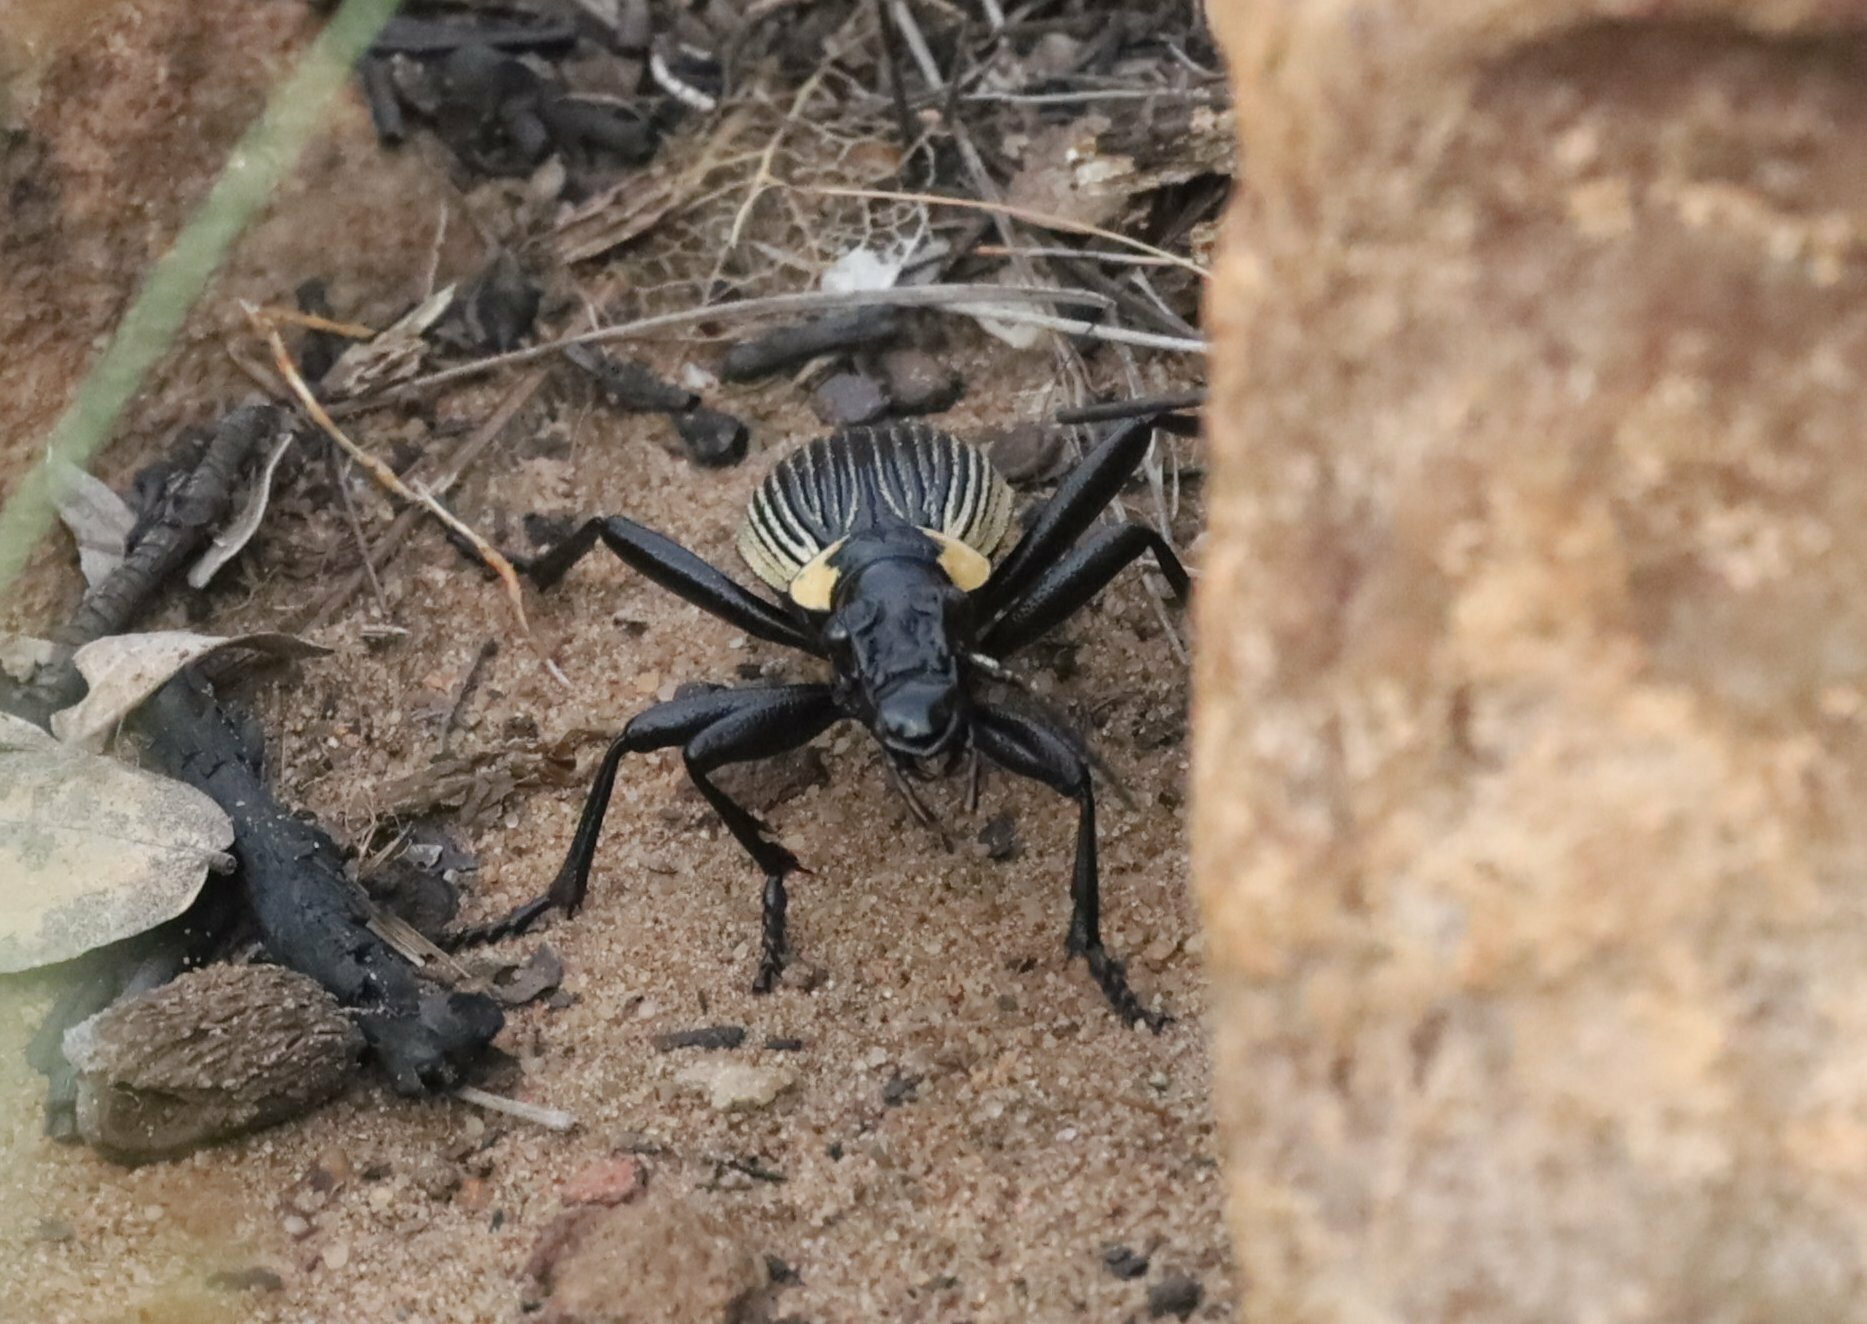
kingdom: Animalia
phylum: Arthropoda
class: Insecta
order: Coleoptera
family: Carabidae
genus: Anthia
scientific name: Anthia burchelli
